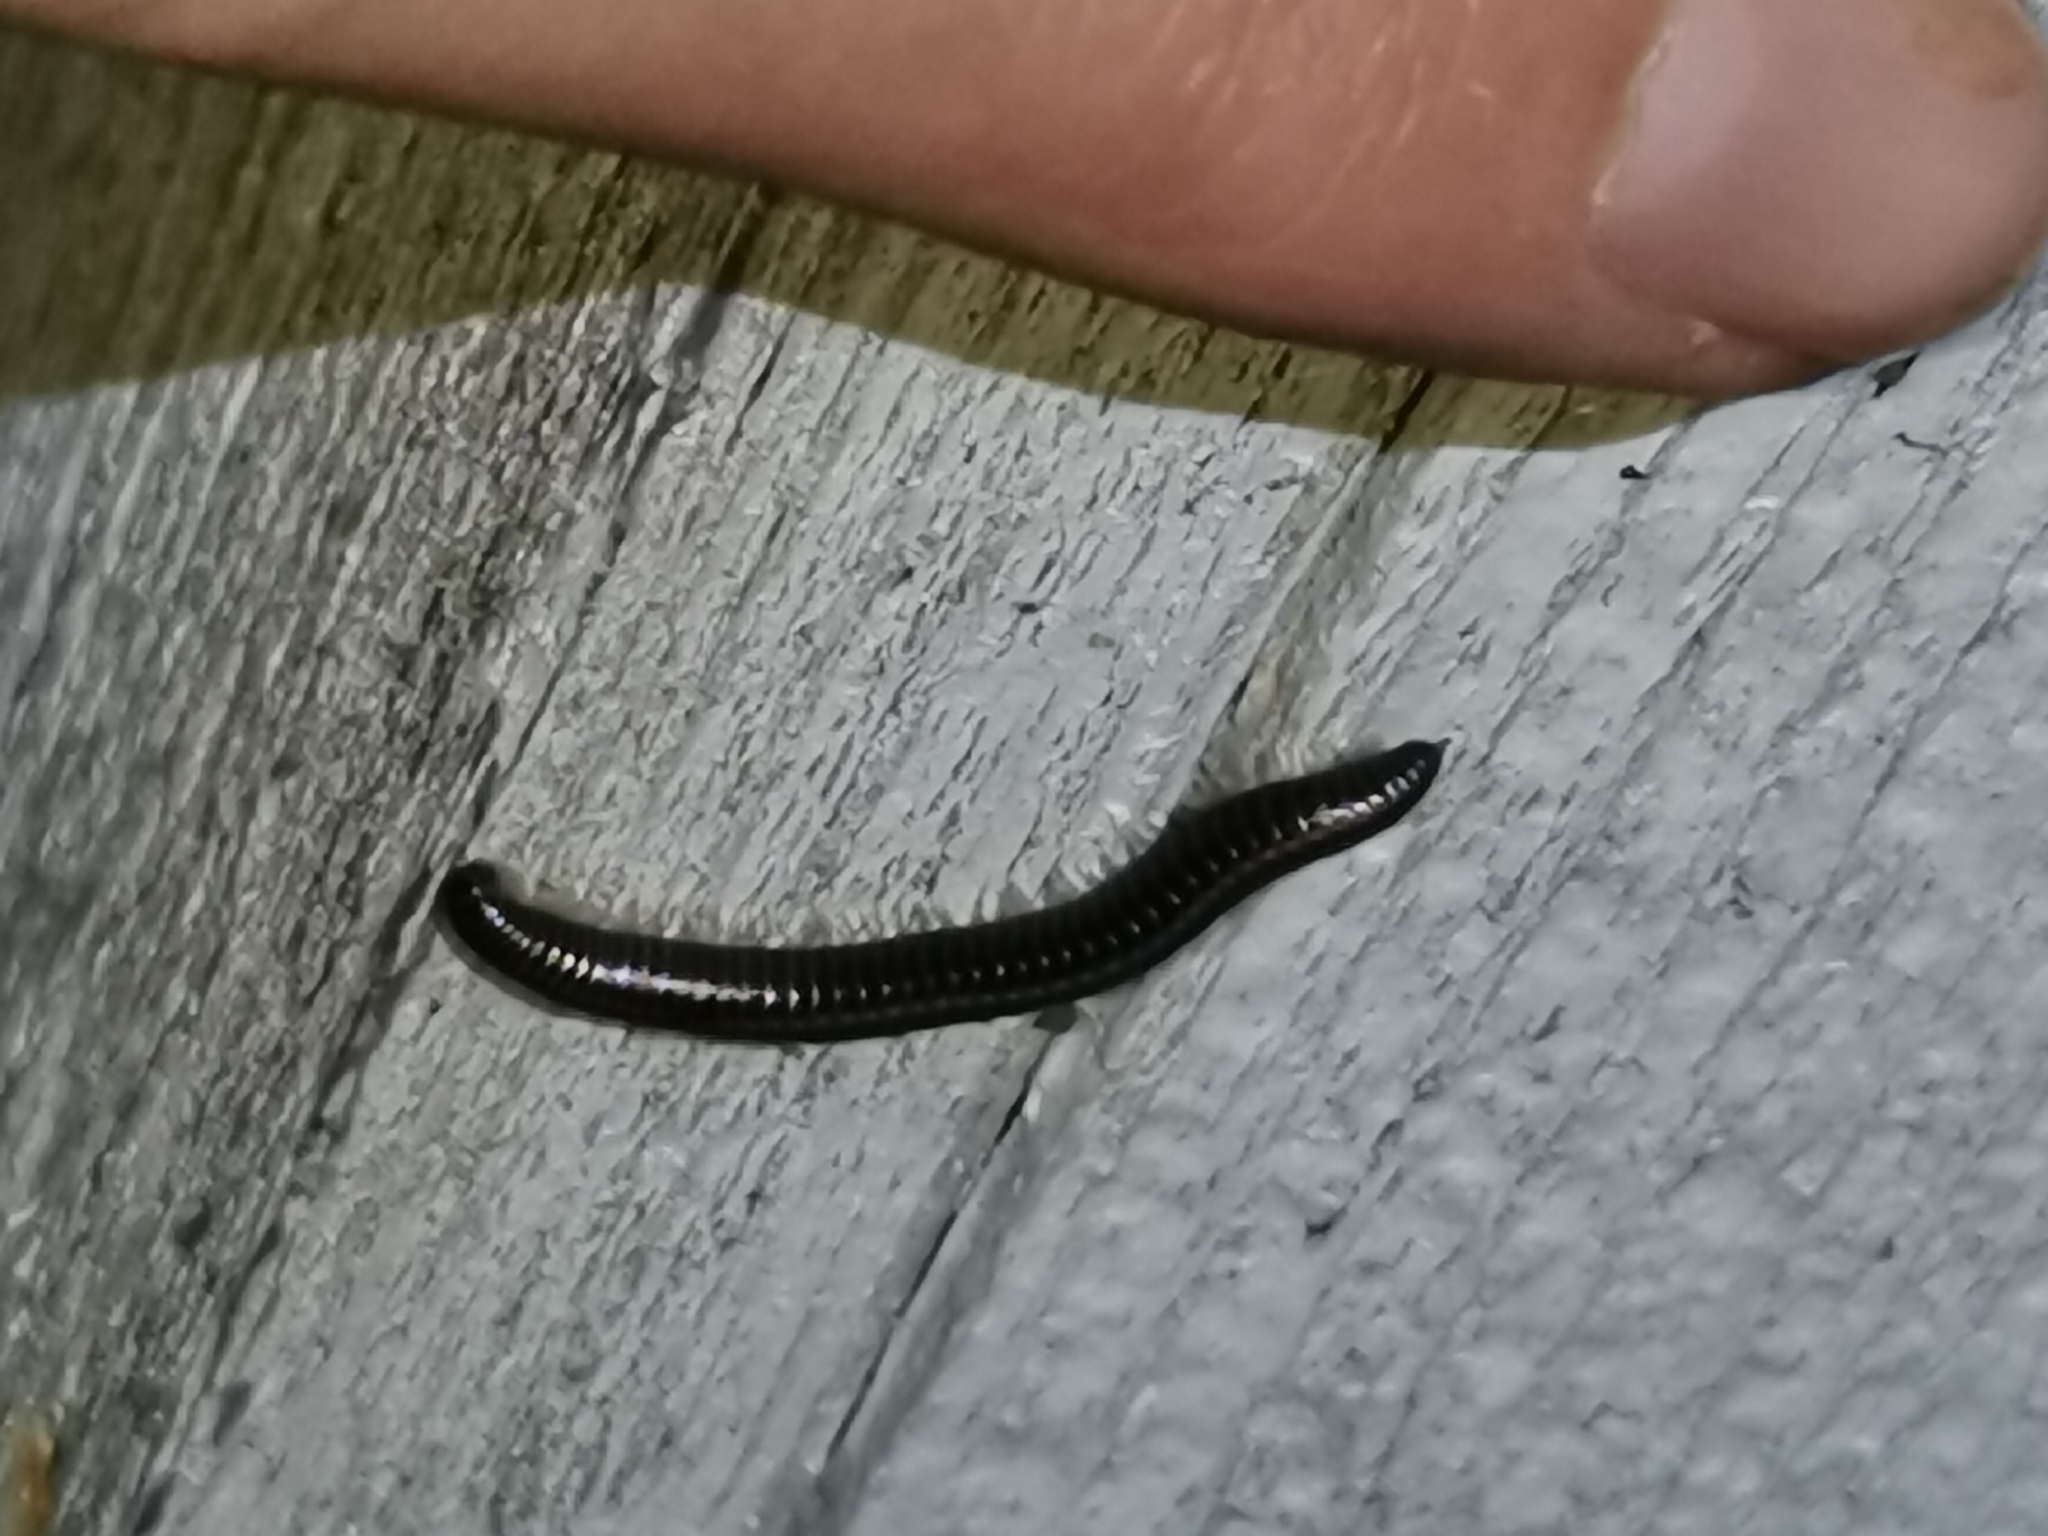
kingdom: Animalia
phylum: Arthropoda
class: Diplopoda
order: Julida
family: Julidae
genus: Ommatoiulus
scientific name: Ommatoiulus sabulosus
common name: Striped millipede
